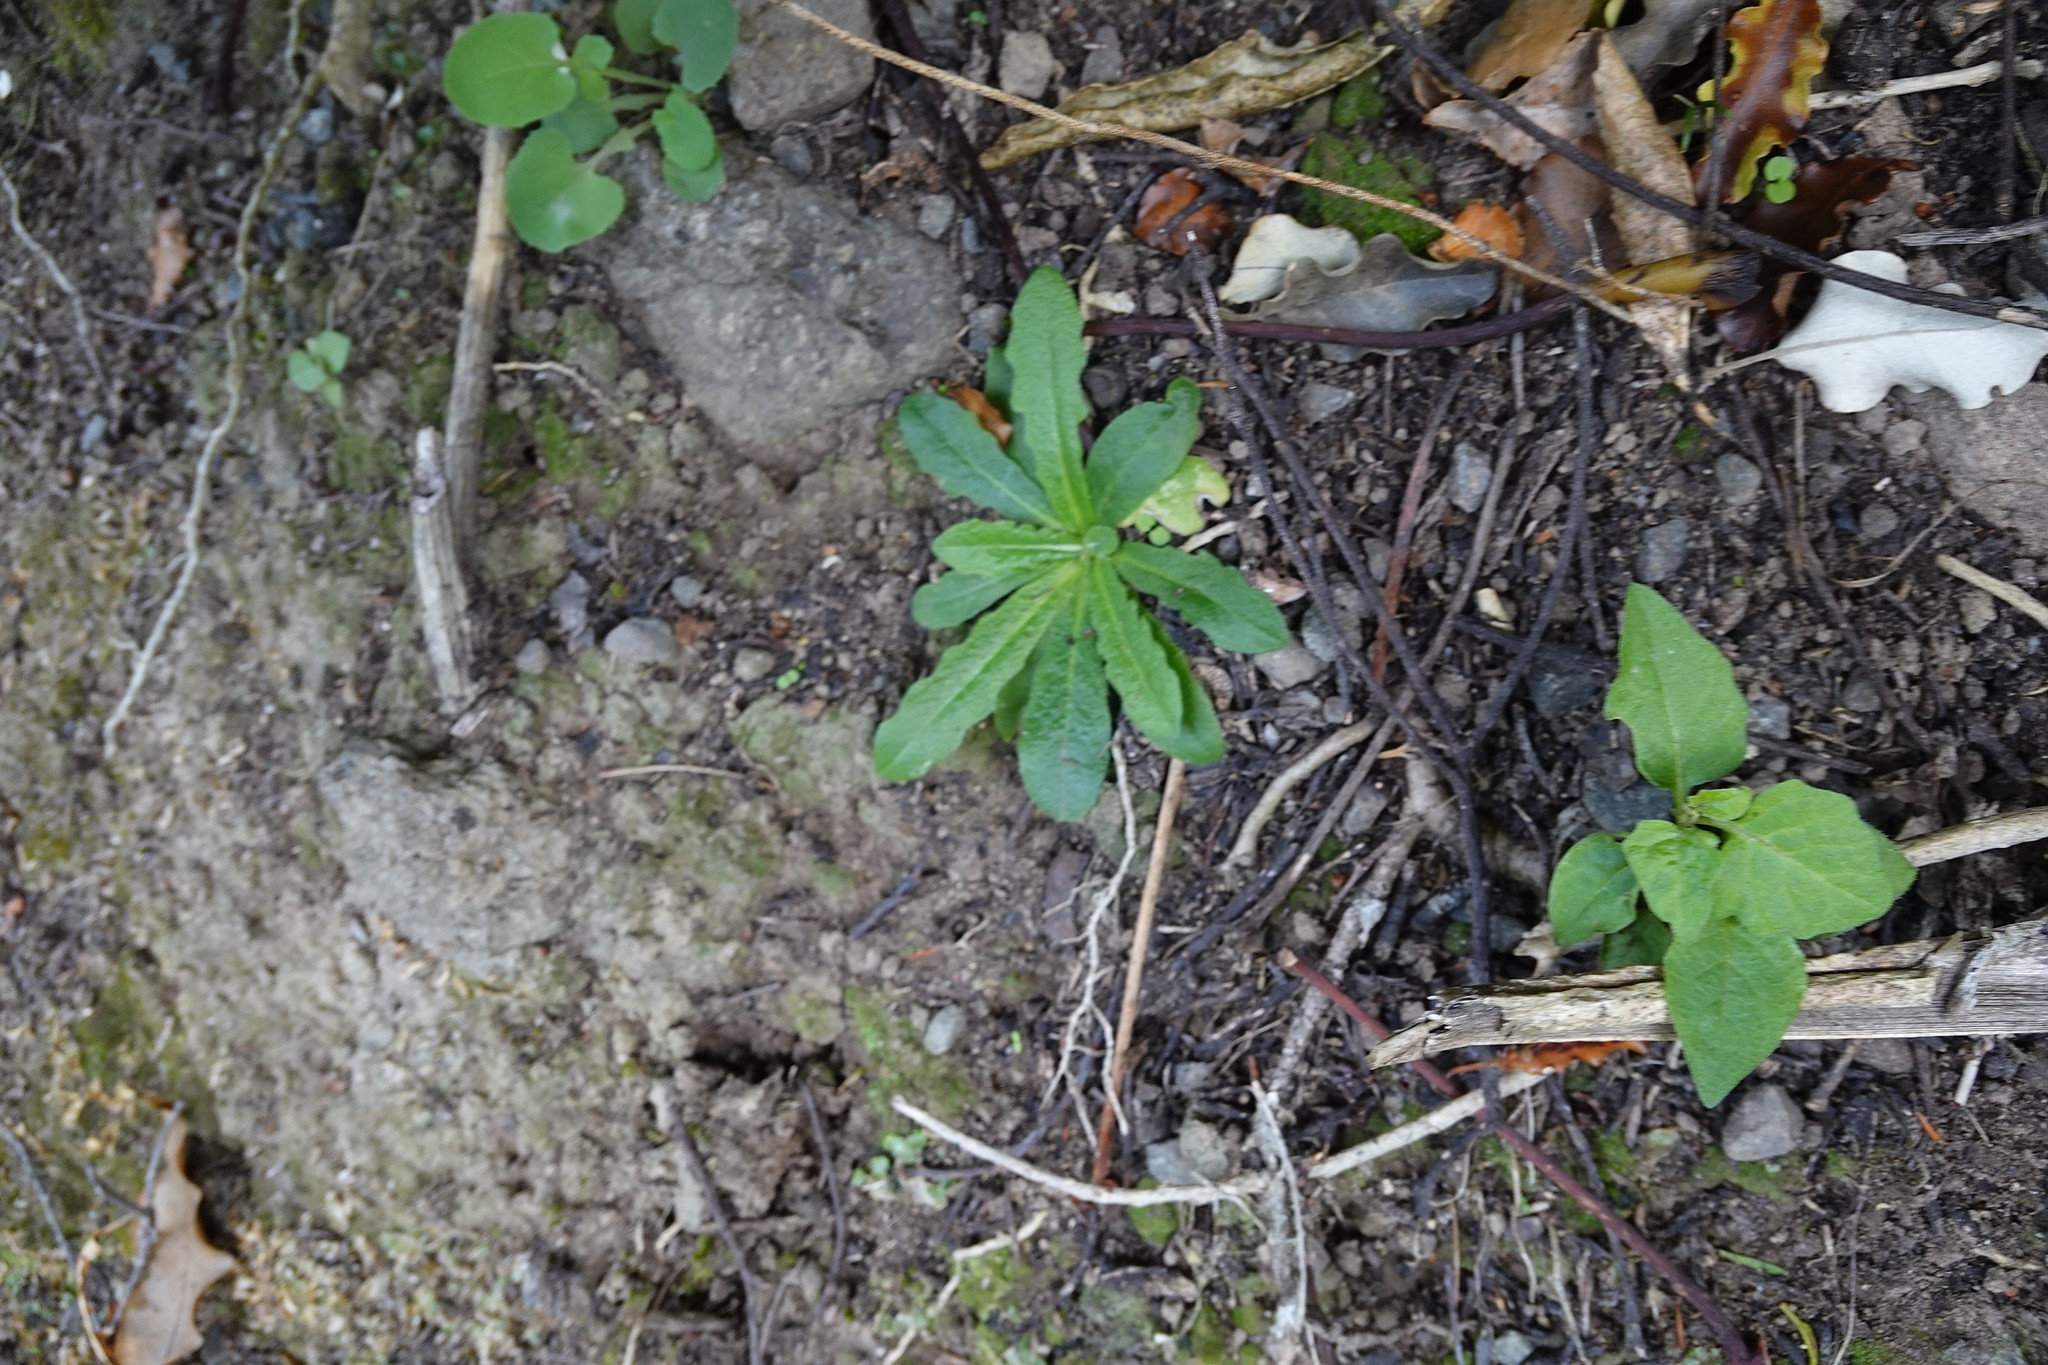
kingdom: Plantae
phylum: Tracheophyta
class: Magnoliopsida
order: Asterales
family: Asteraceae
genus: Sonchus
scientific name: Sonchus oleraceus
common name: Common sowthistle
